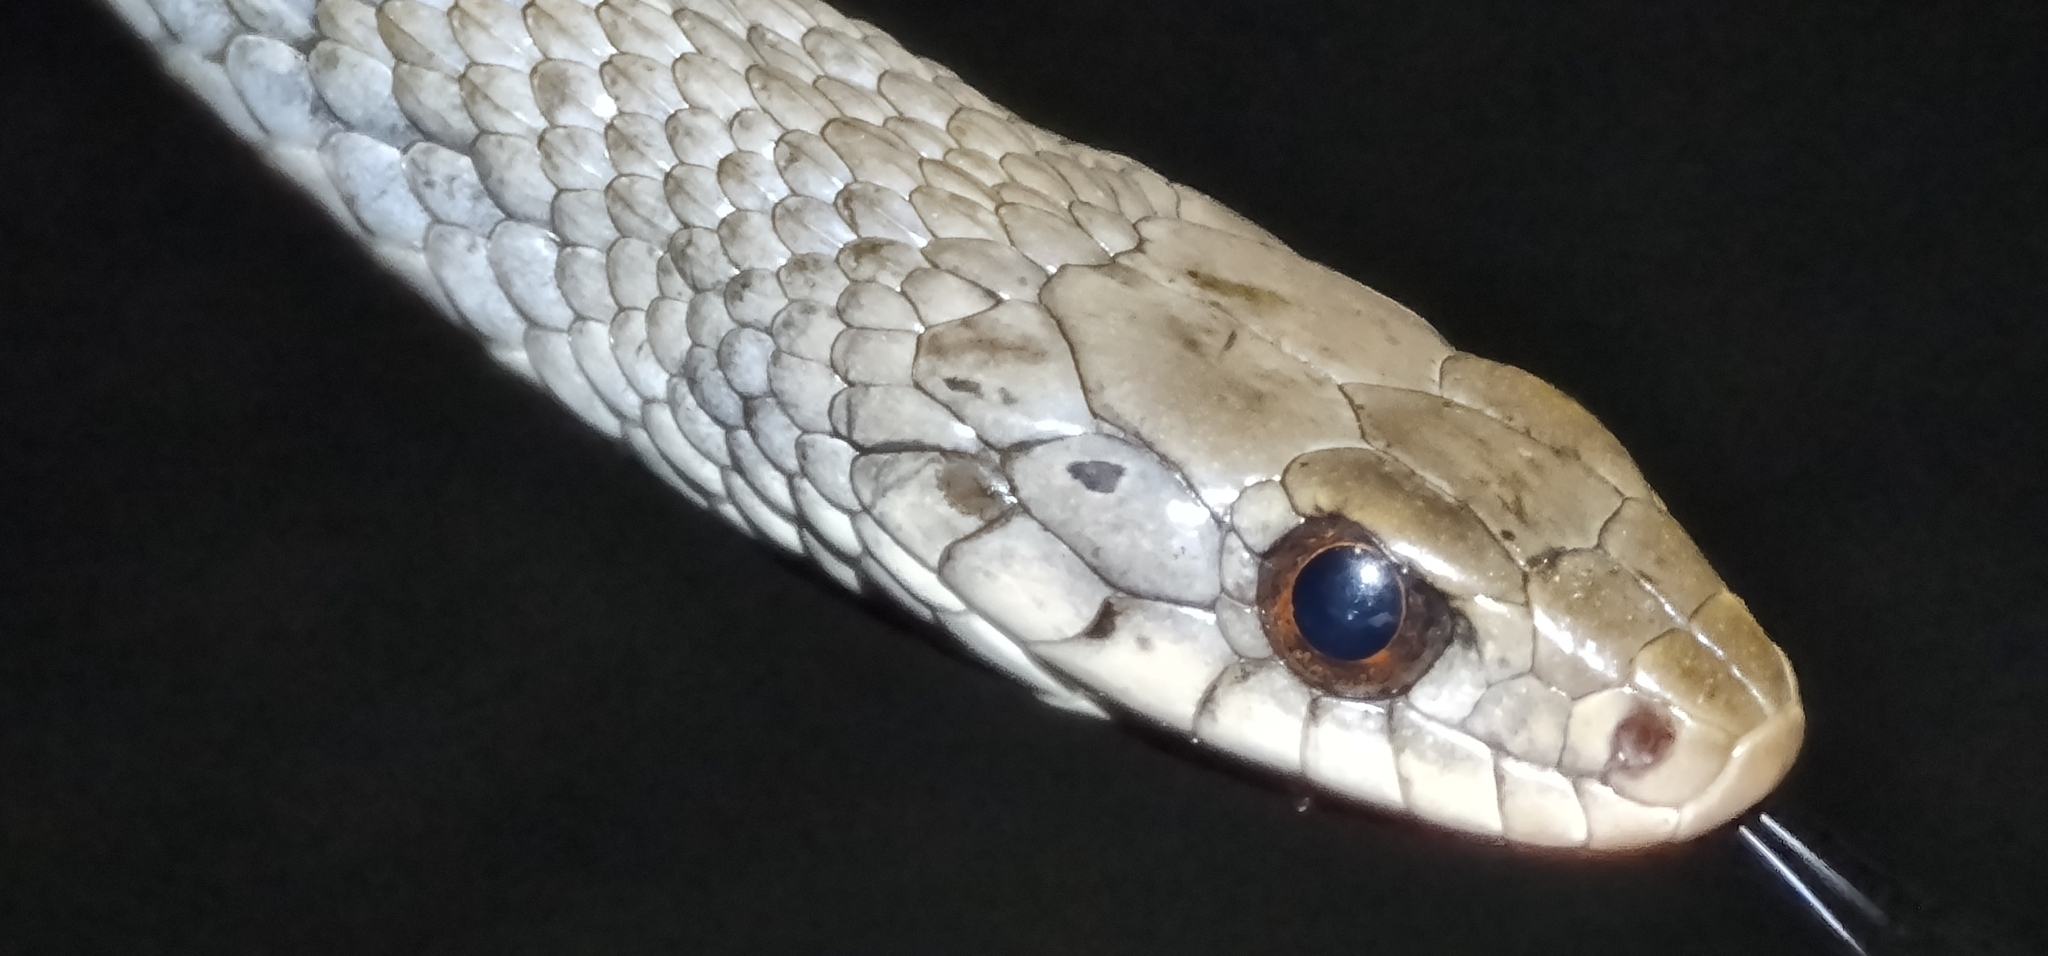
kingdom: Animalia
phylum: Chordata
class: Squamata
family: Colubridae
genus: Tropidonophis
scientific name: Tropidonophis mairii
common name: Common keelback
